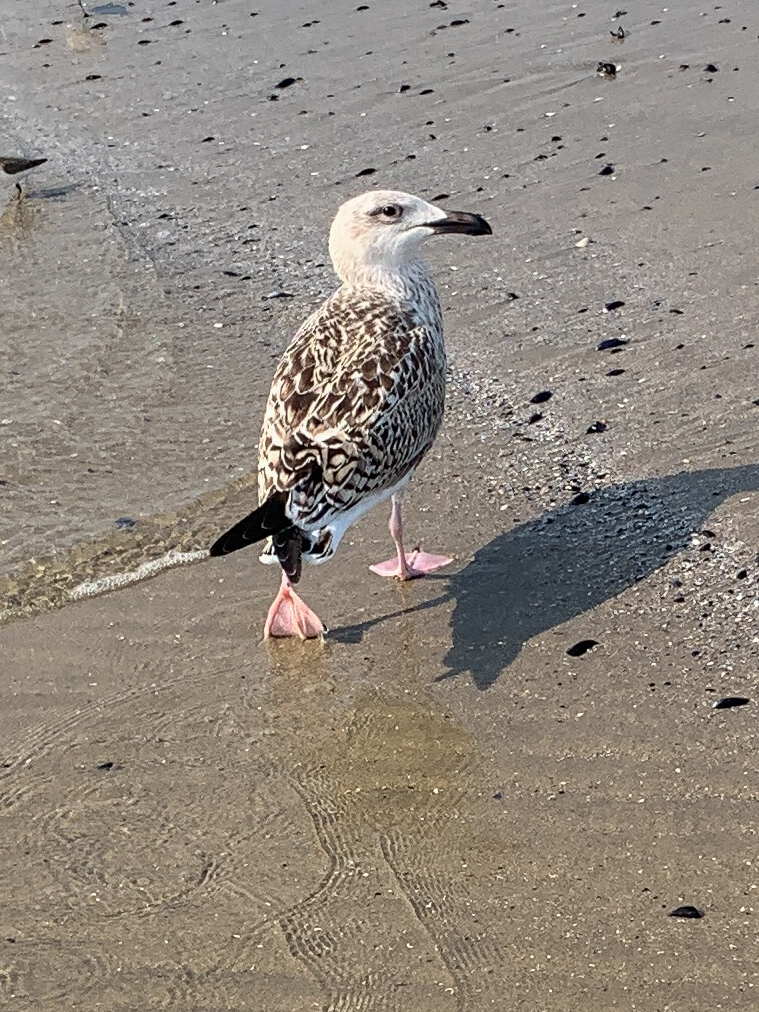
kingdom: Animalia
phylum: Chordata
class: Aves
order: Charadriiformes
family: Laridae
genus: Larus
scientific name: Larus marinus
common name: Great black-backed gull
